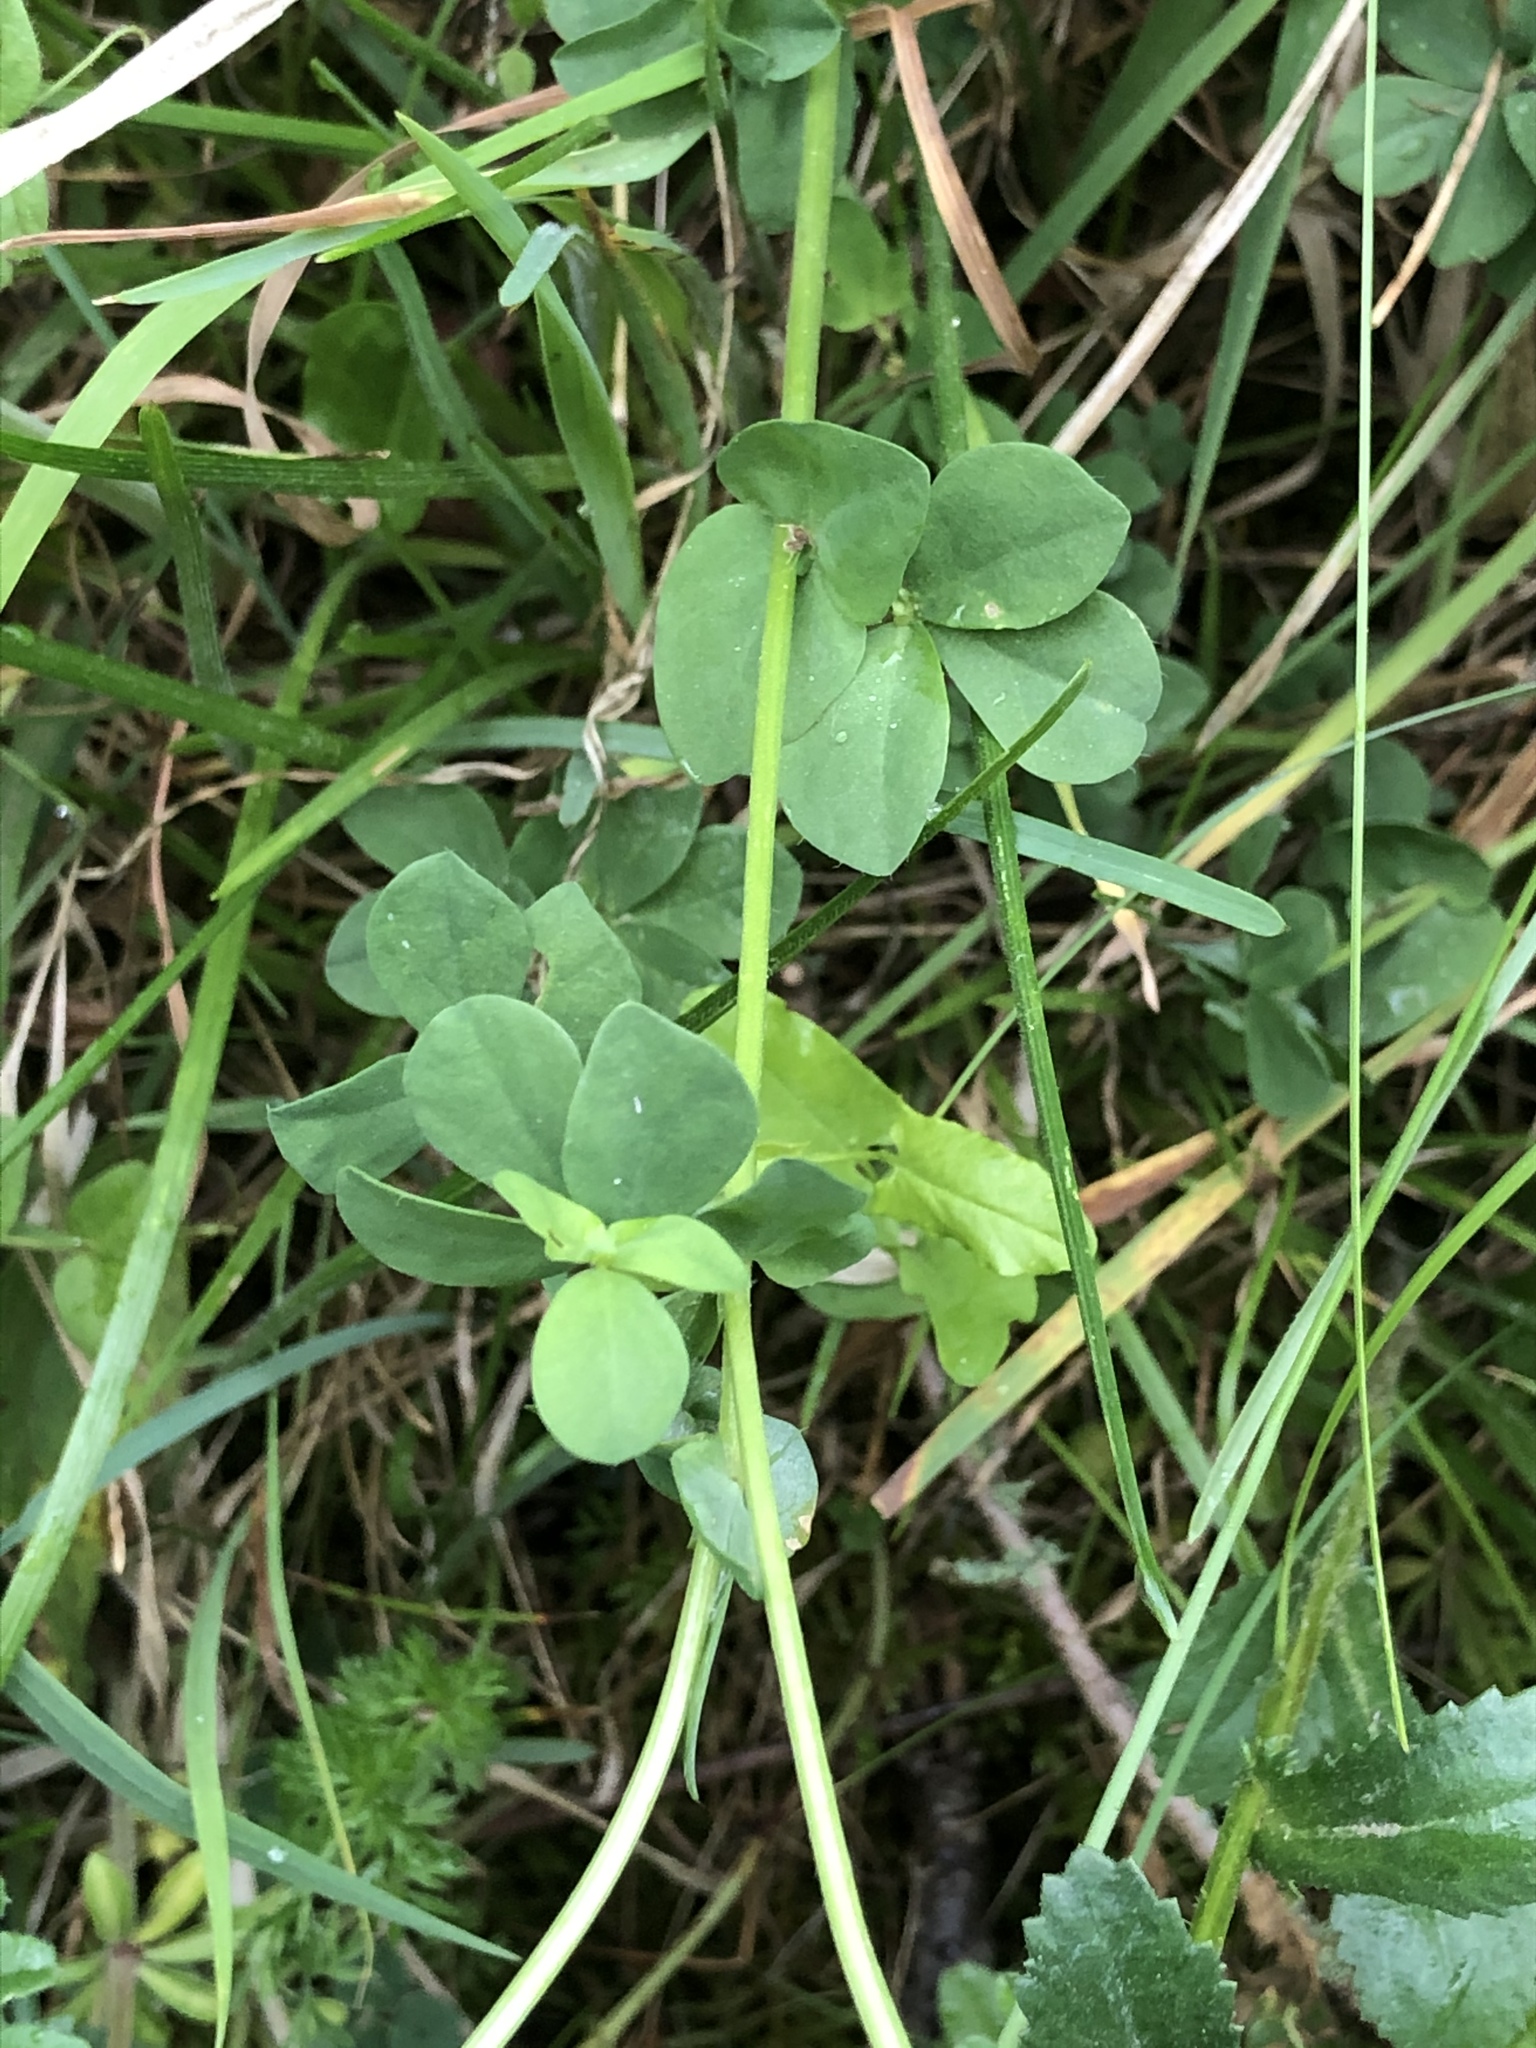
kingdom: Plantae
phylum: Tracheophyta
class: Magnoliopsida
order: Fabales
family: Fabaceae
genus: Lotus
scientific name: Lotus corniculatus
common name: Common bird's-foot-trefoil
